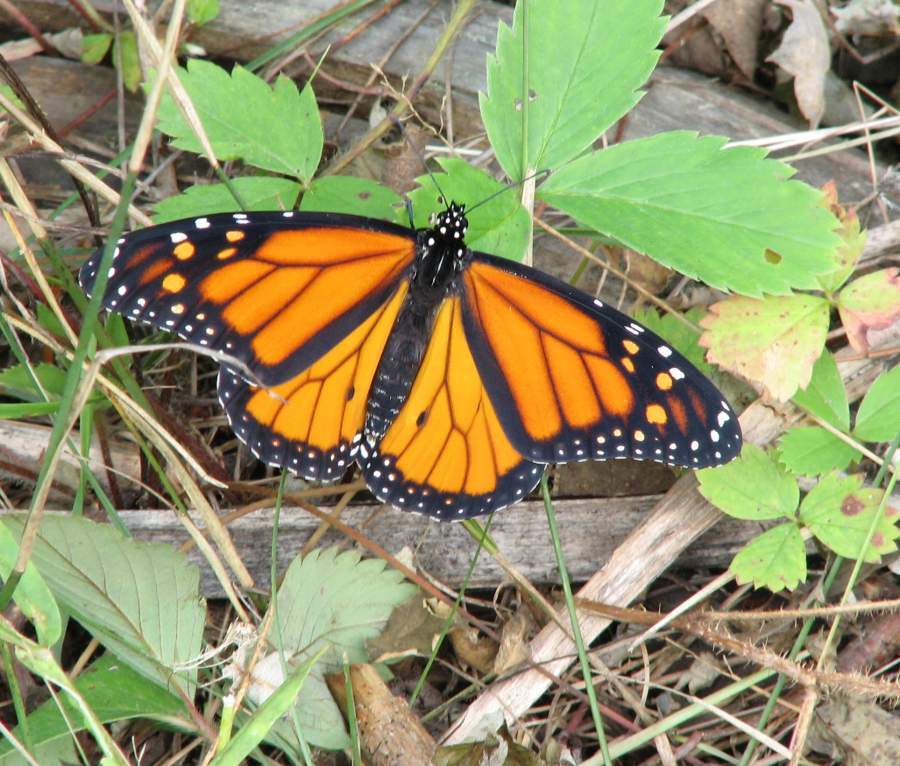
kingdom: Animalia
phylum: Arthropoda
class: Insecta
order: Lepidoptera
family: Nymphalidae
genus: Danaus
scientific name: Danaus plexippus
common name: Monarch
